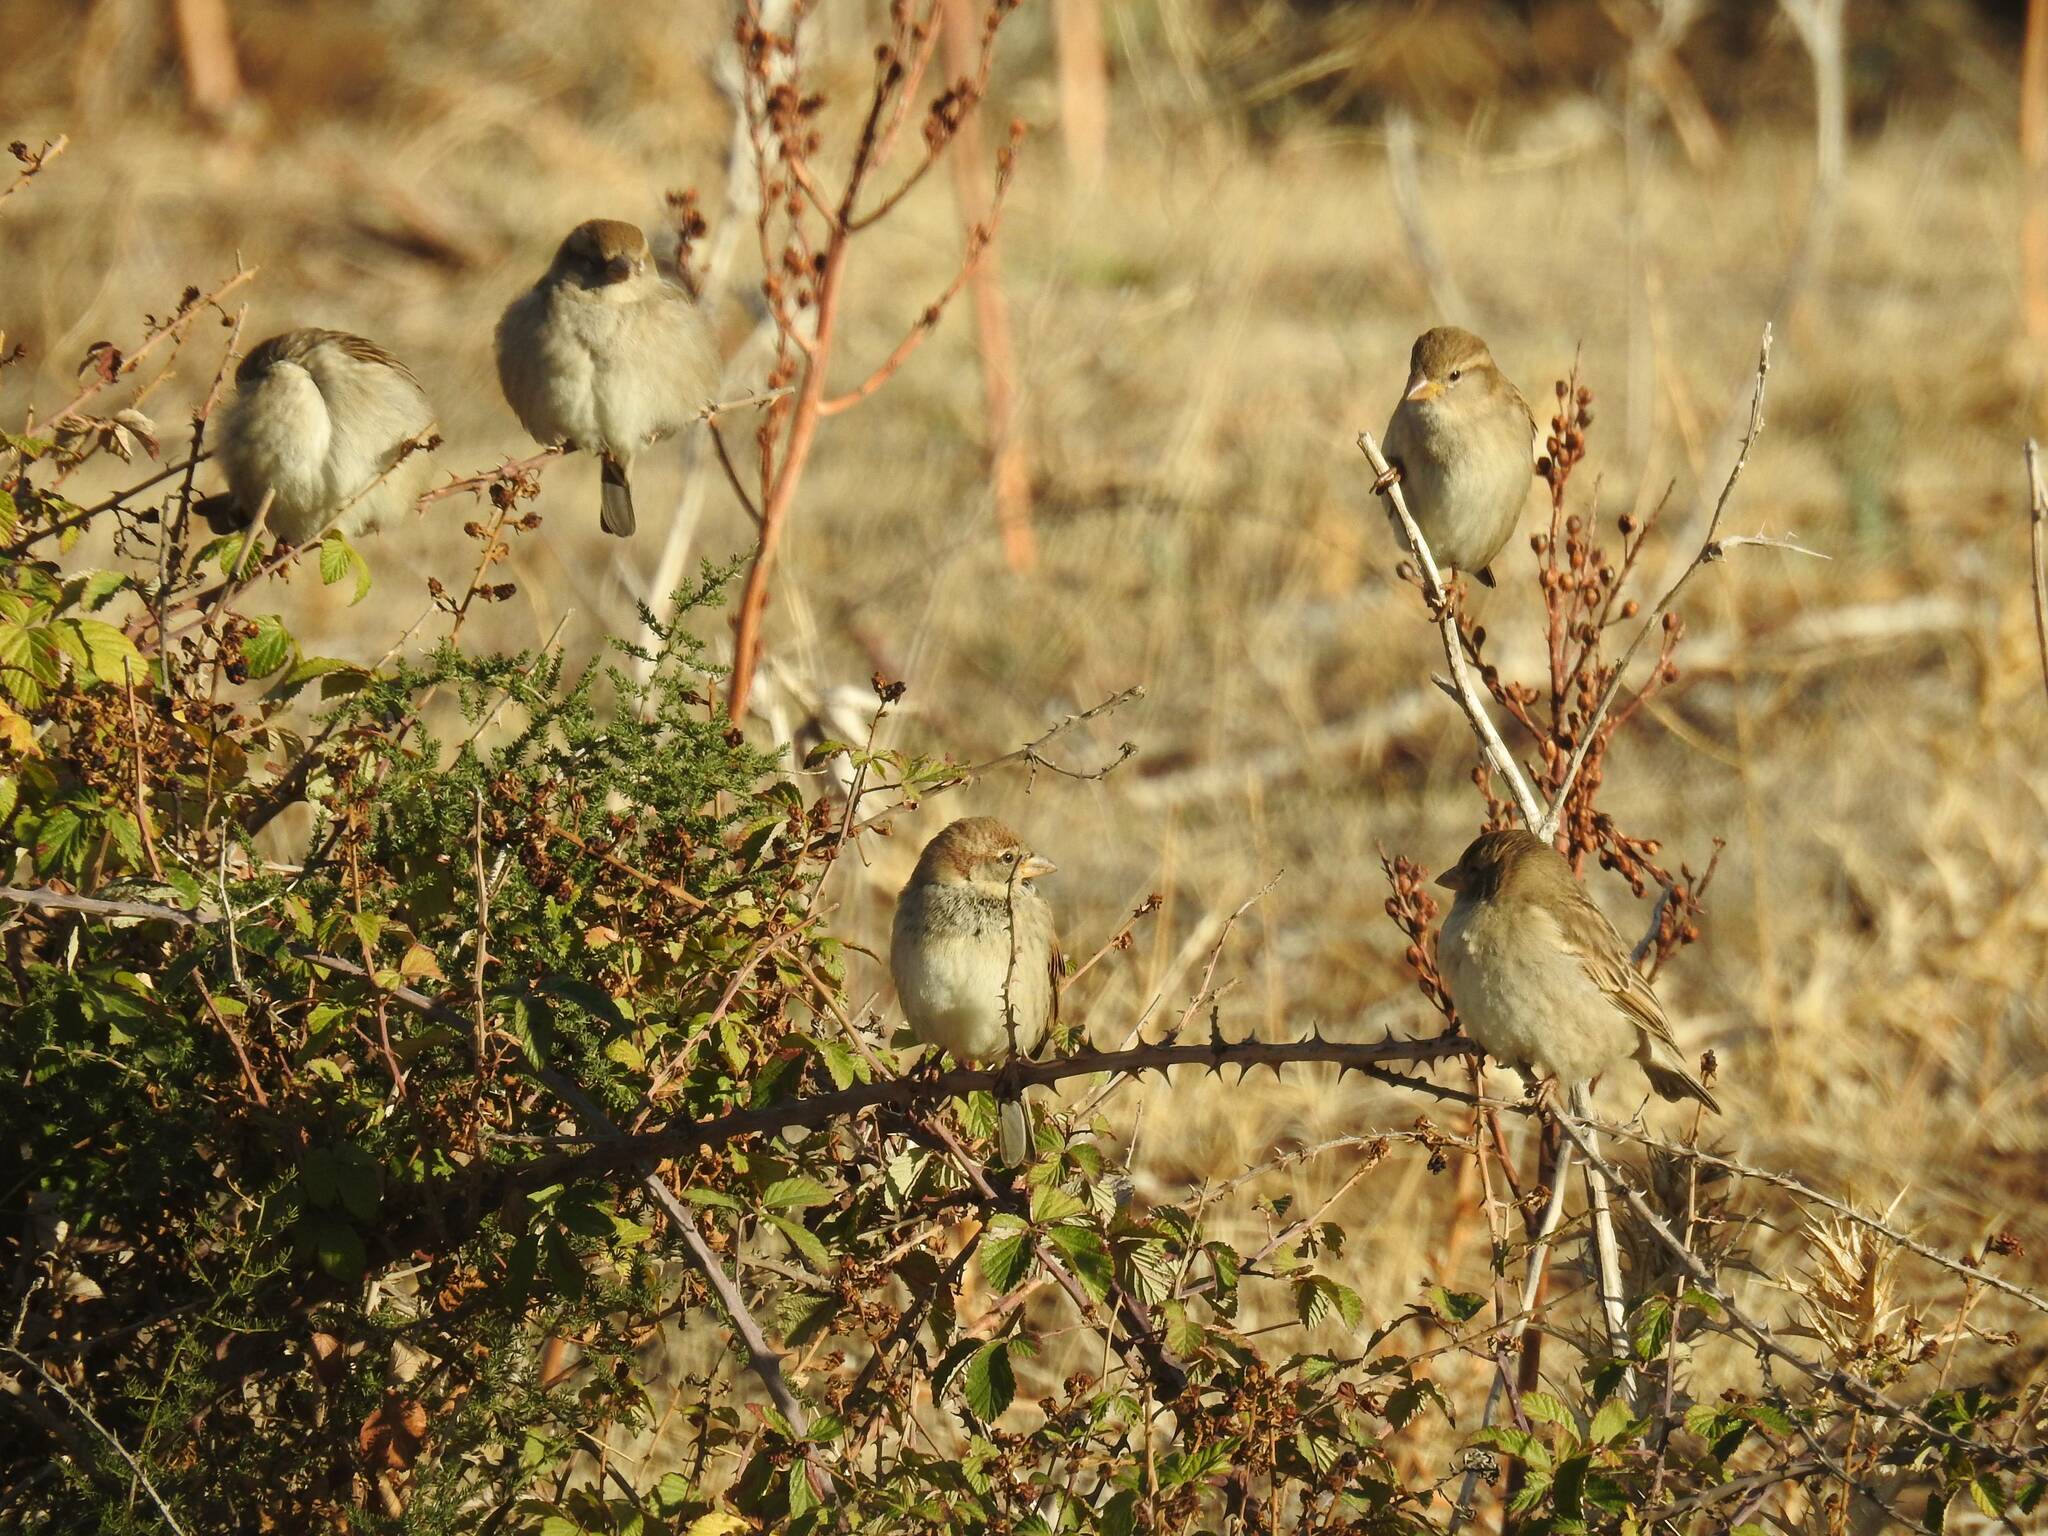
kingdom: Animalia
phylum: Chordata
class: Aves
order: Passeriformes
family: Passeridae
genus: Passer
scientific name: Passer hispaniolensis
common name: Spanish sparrow
